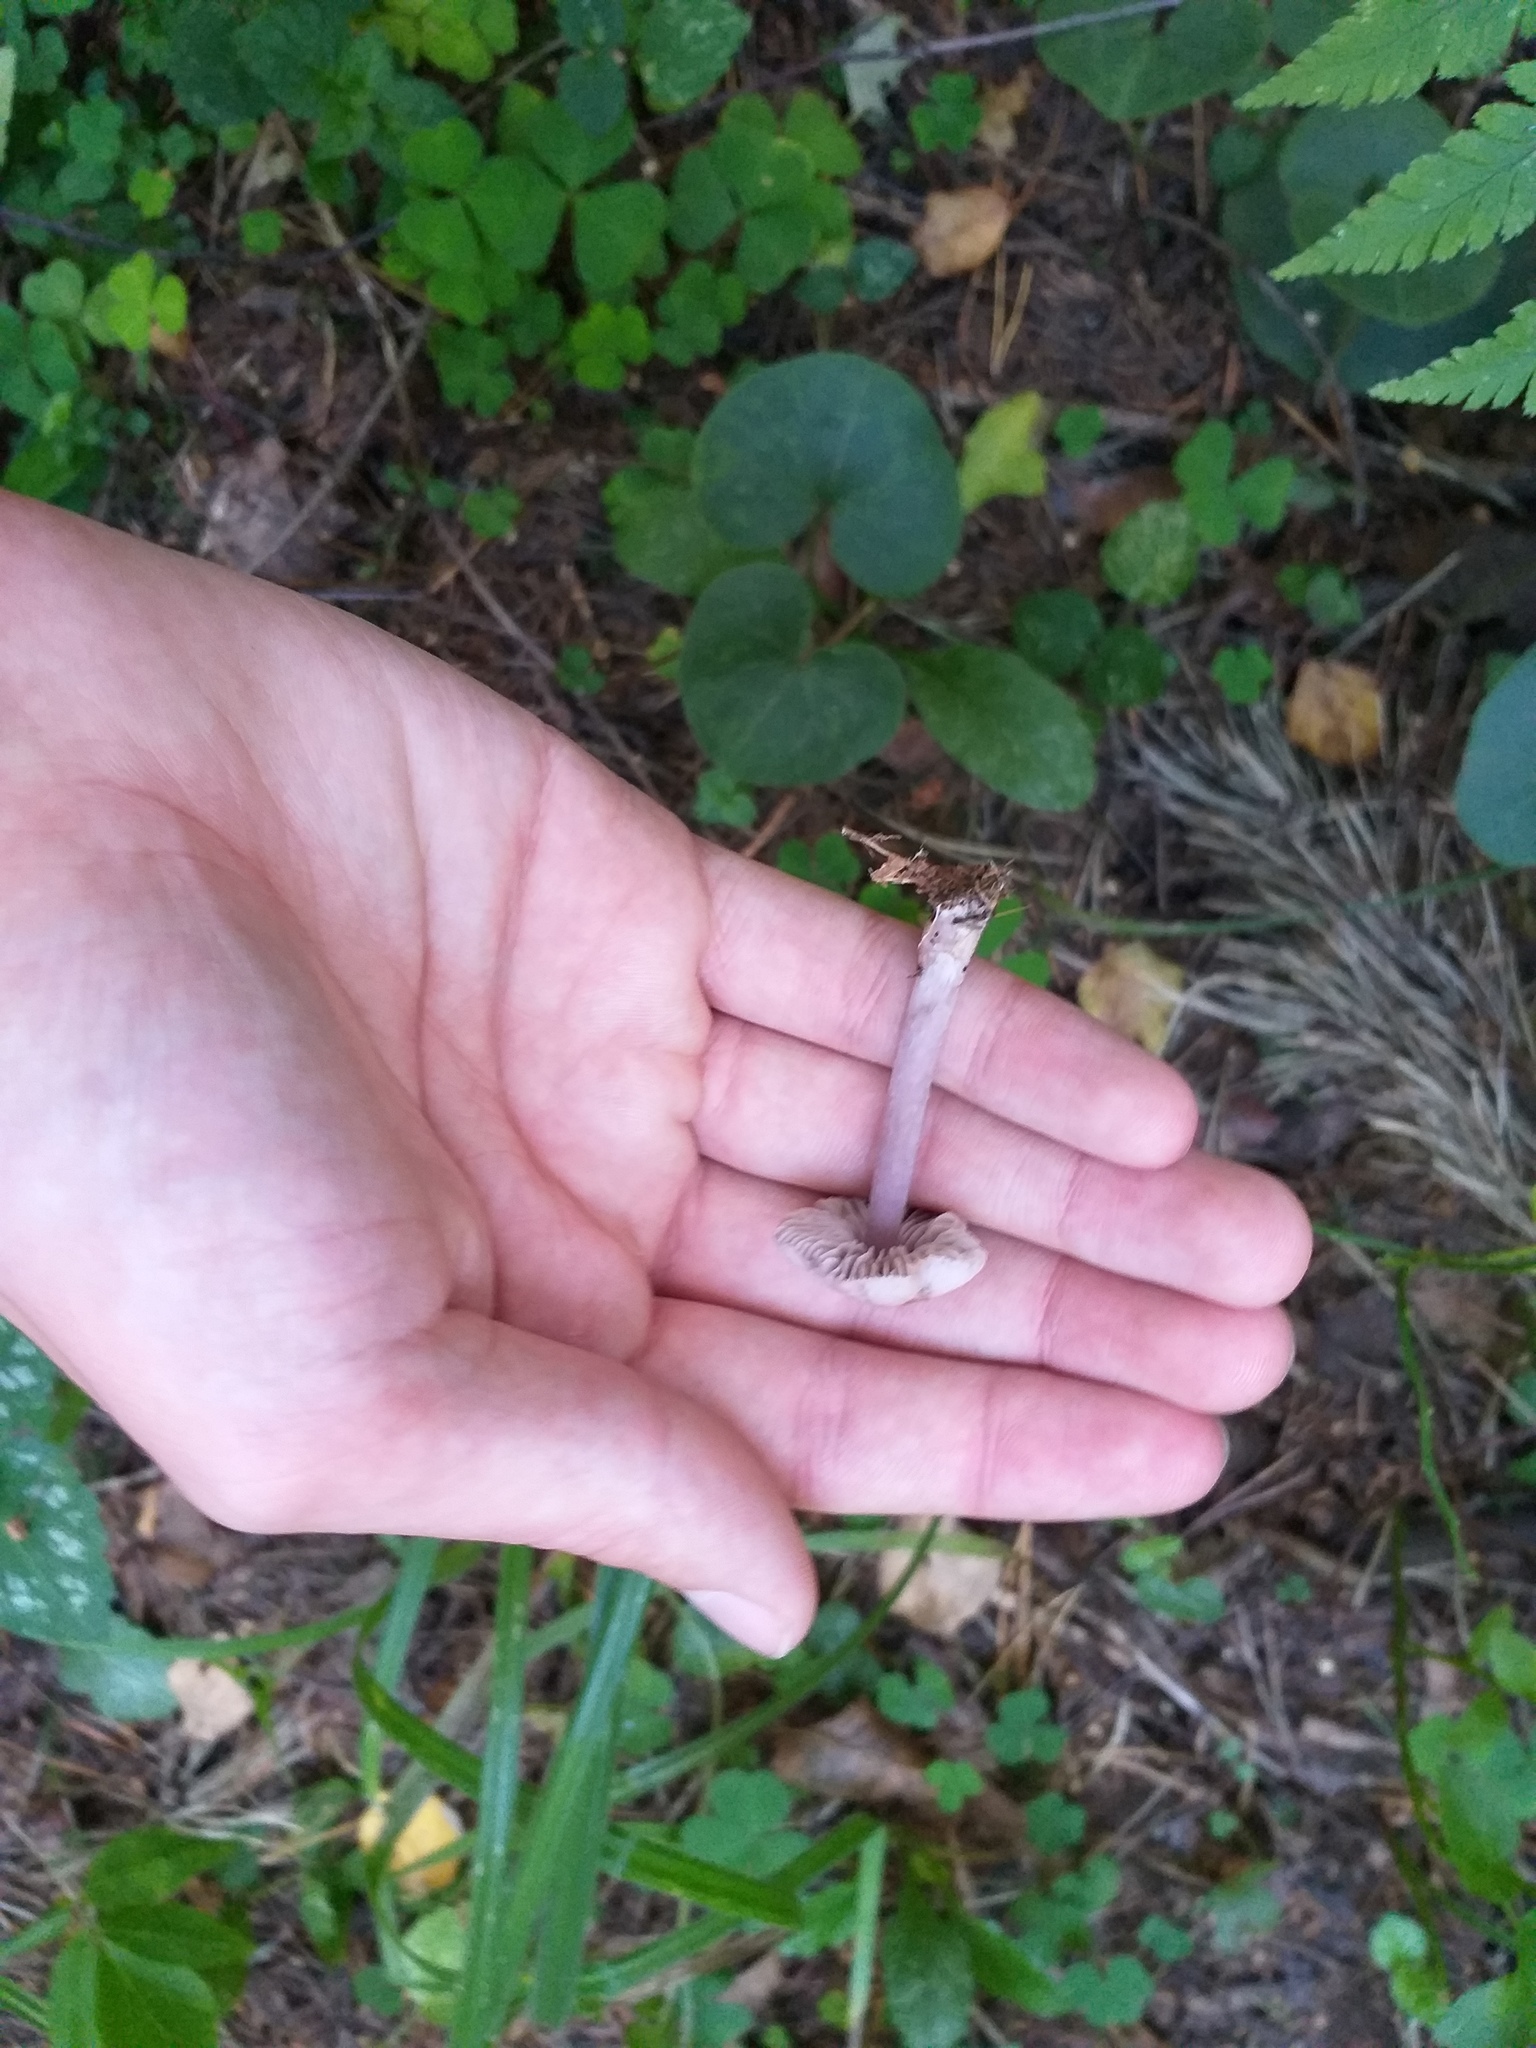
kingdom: Fungi
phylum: Basidiomycota
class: Agaricomycetes
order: Agaricales
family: Mycenaceae
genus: Mycena
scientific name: Mycena pura
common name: Lilac bonnet
